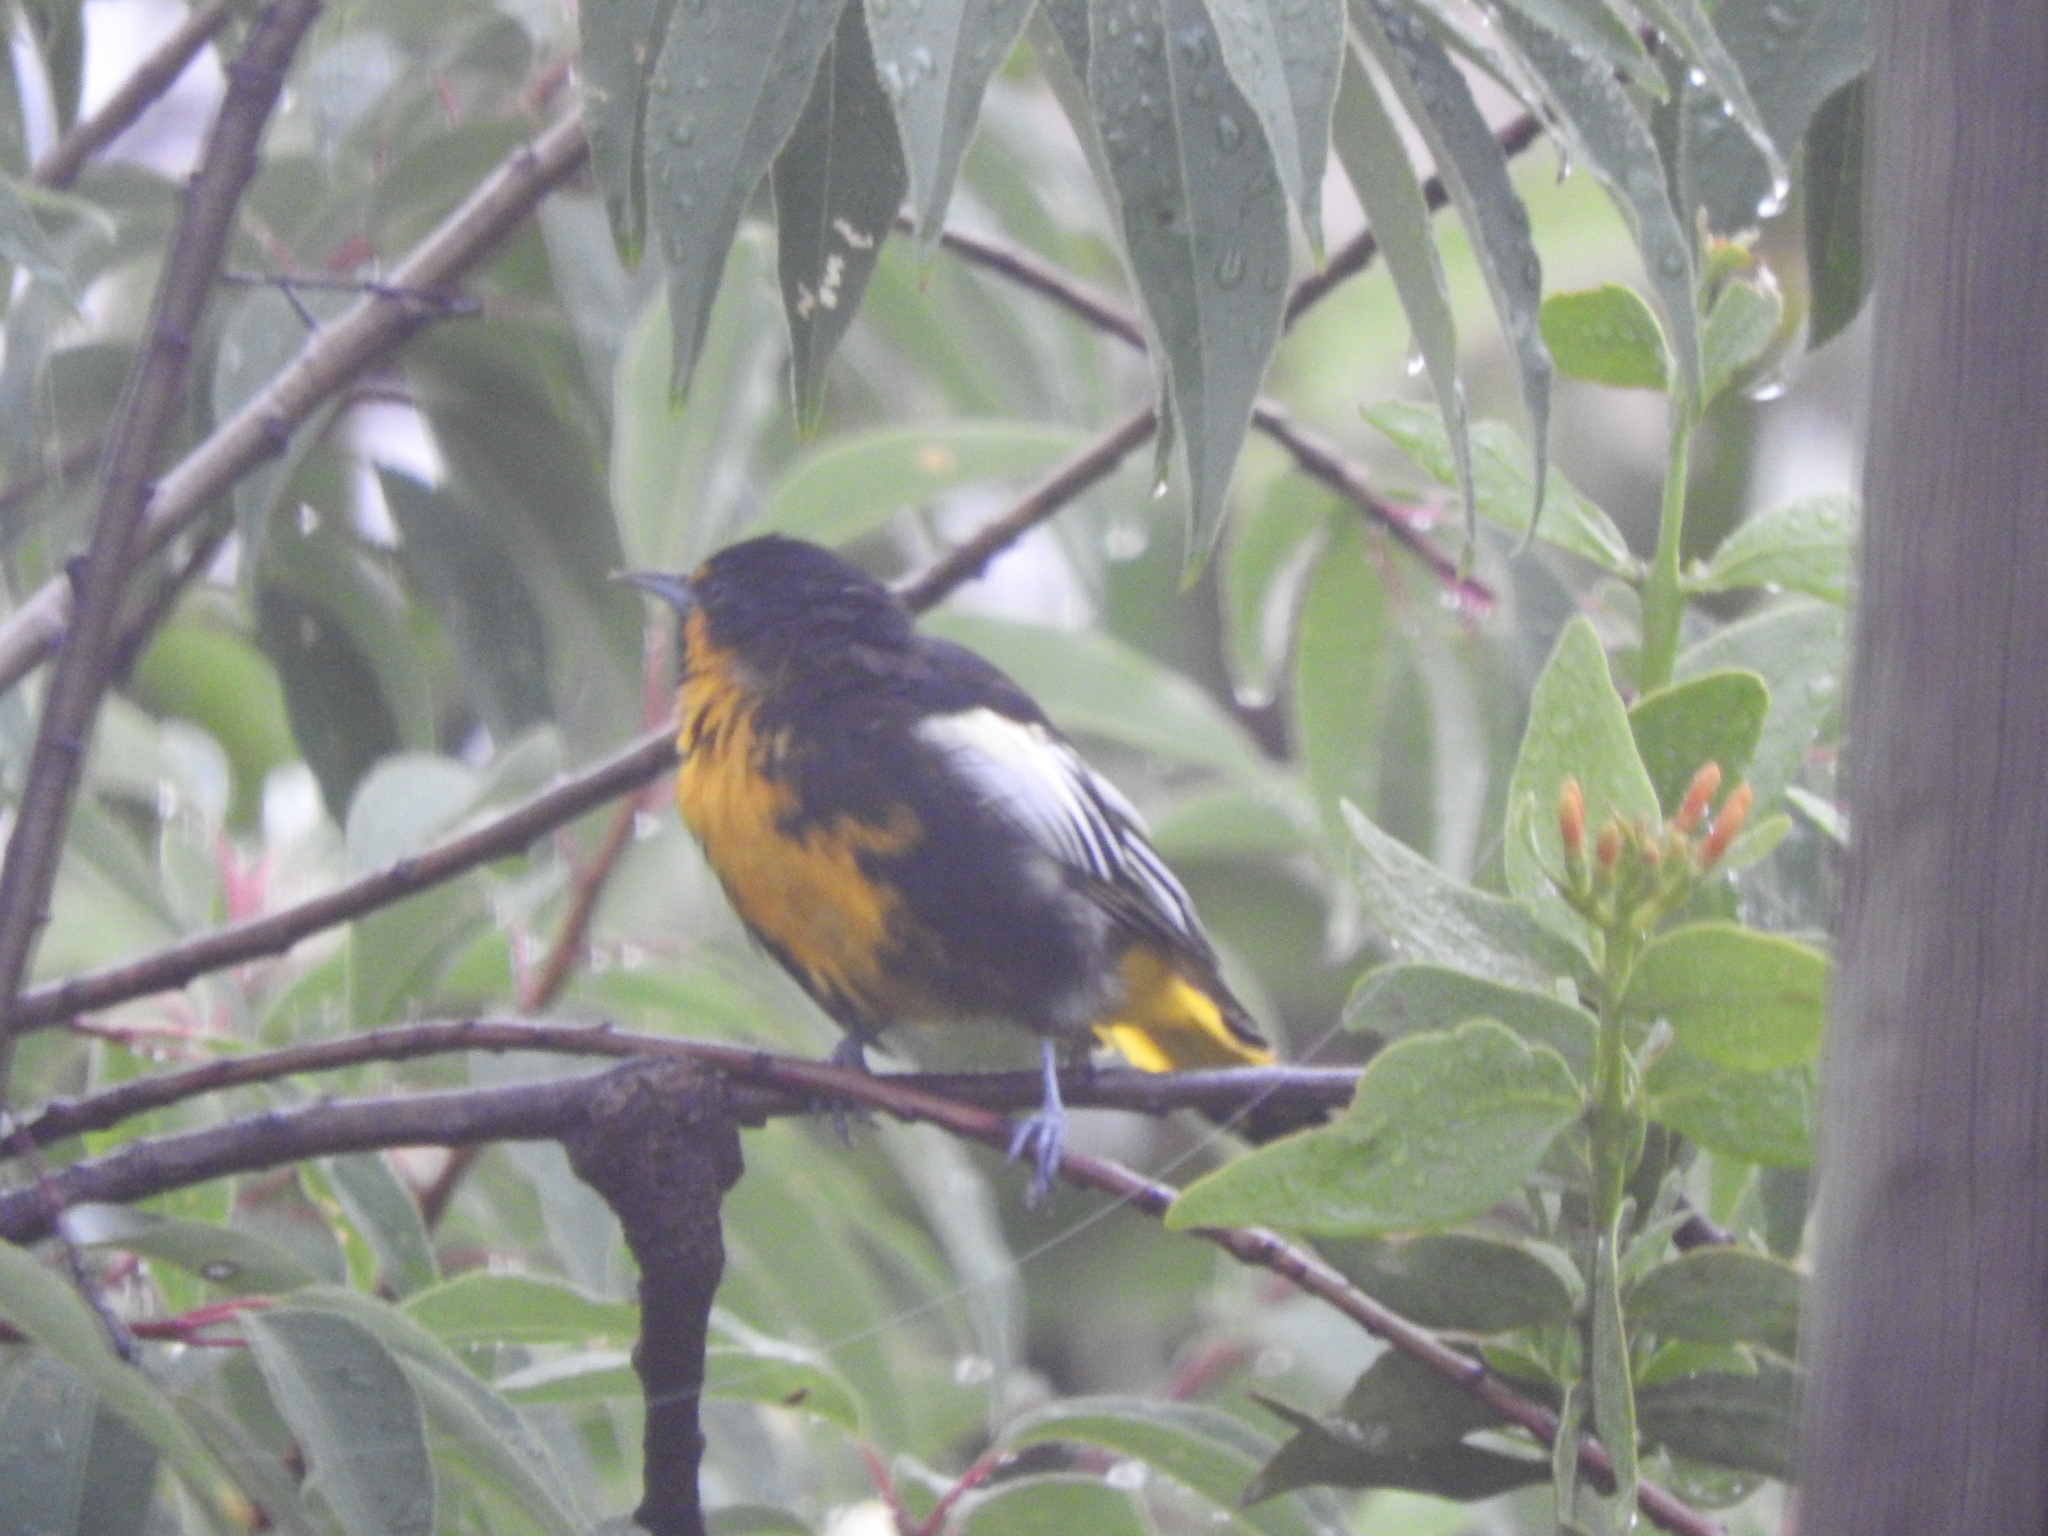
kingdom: Animalia
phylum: Chordata
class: Aves
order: Passeriformes
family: Icteridae
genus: Icterus
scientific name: Icterus abeillei
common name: Black-backed oriole
